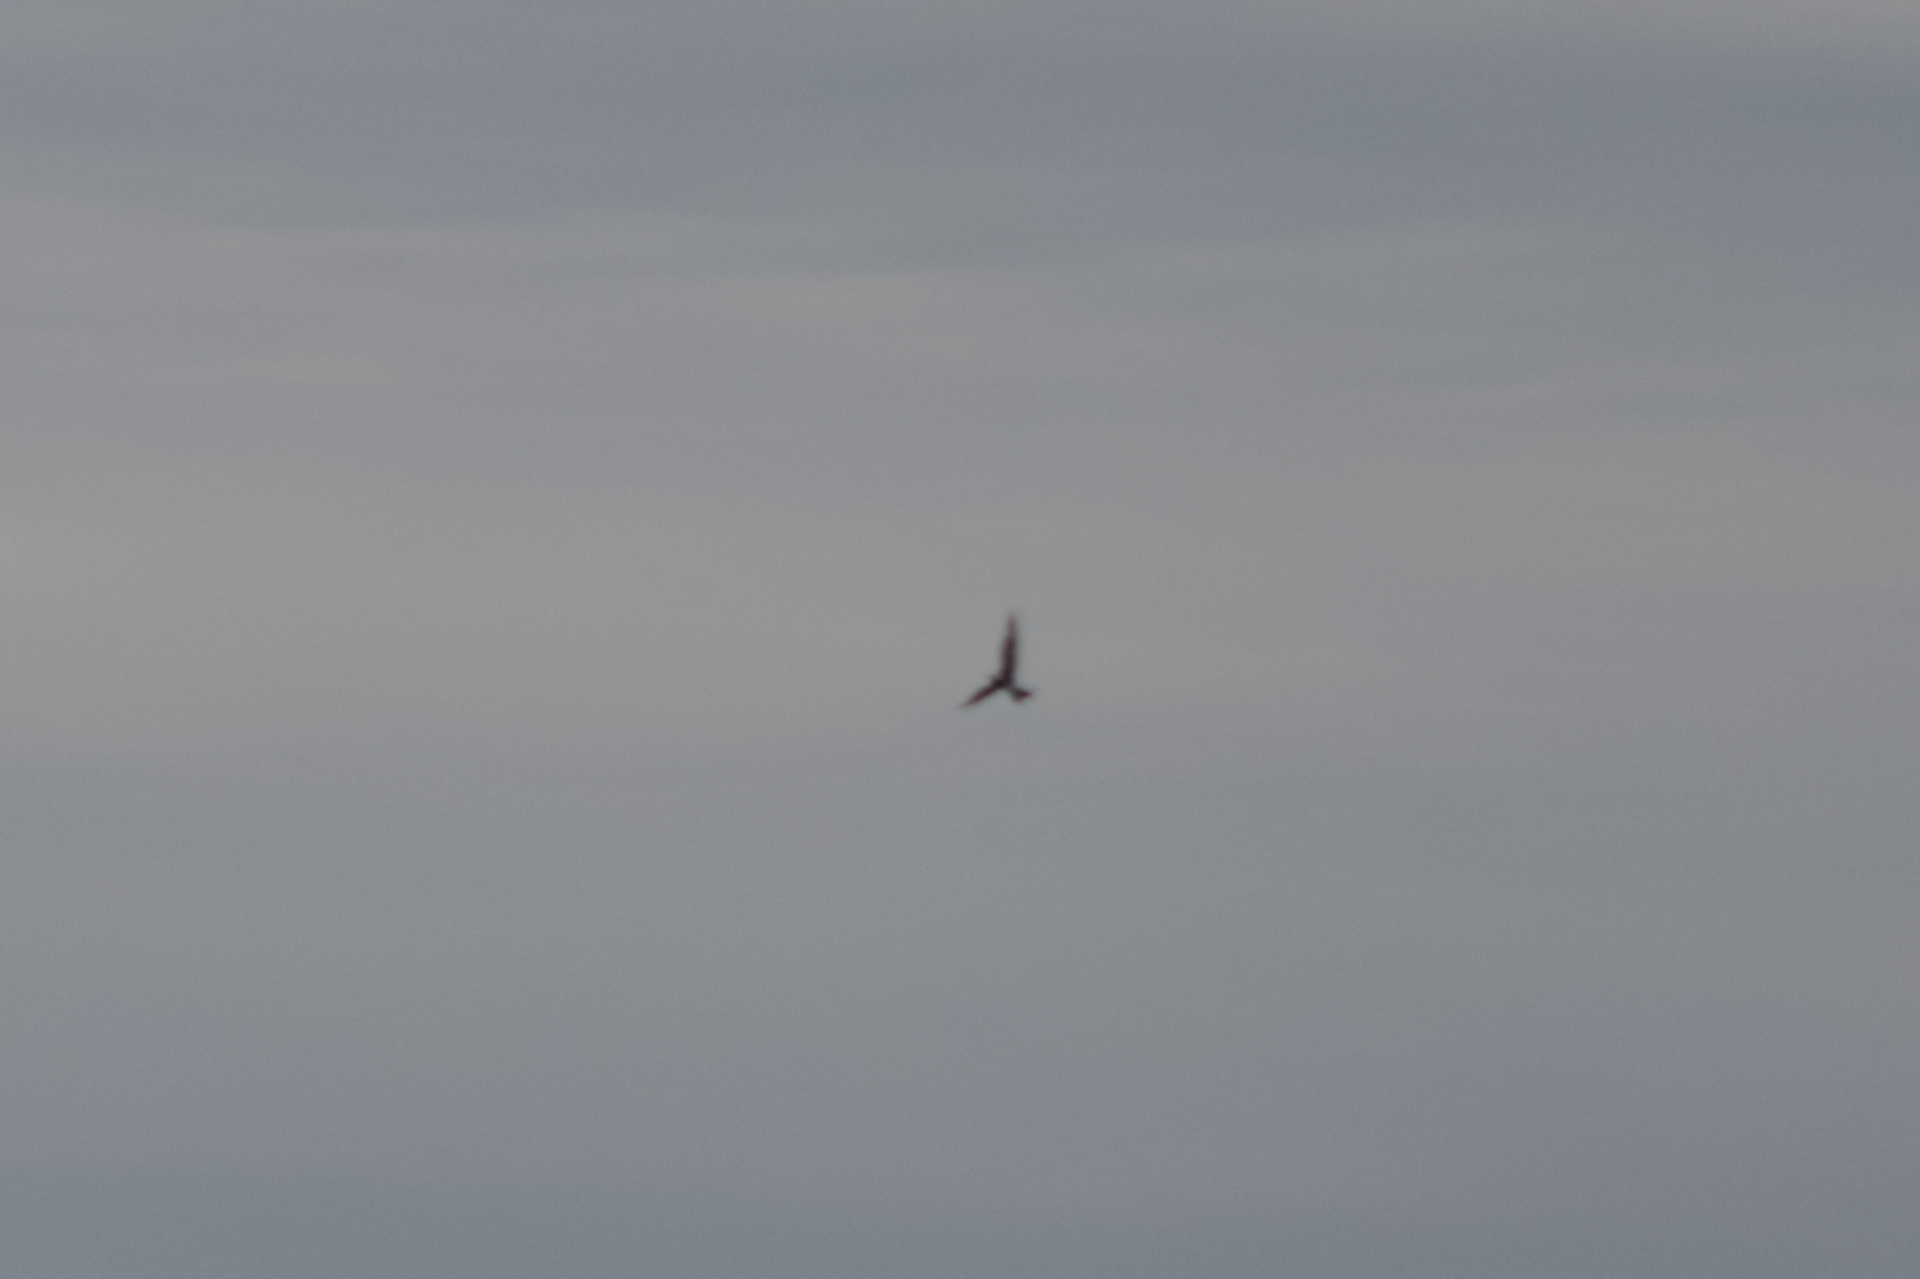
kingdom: Animalia
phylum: Chordata
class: Aves
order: Caprimulgiformes
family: Caprimulgidae
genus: Chordeiles
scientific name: Chordeiles minor
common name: Common nighthawk
